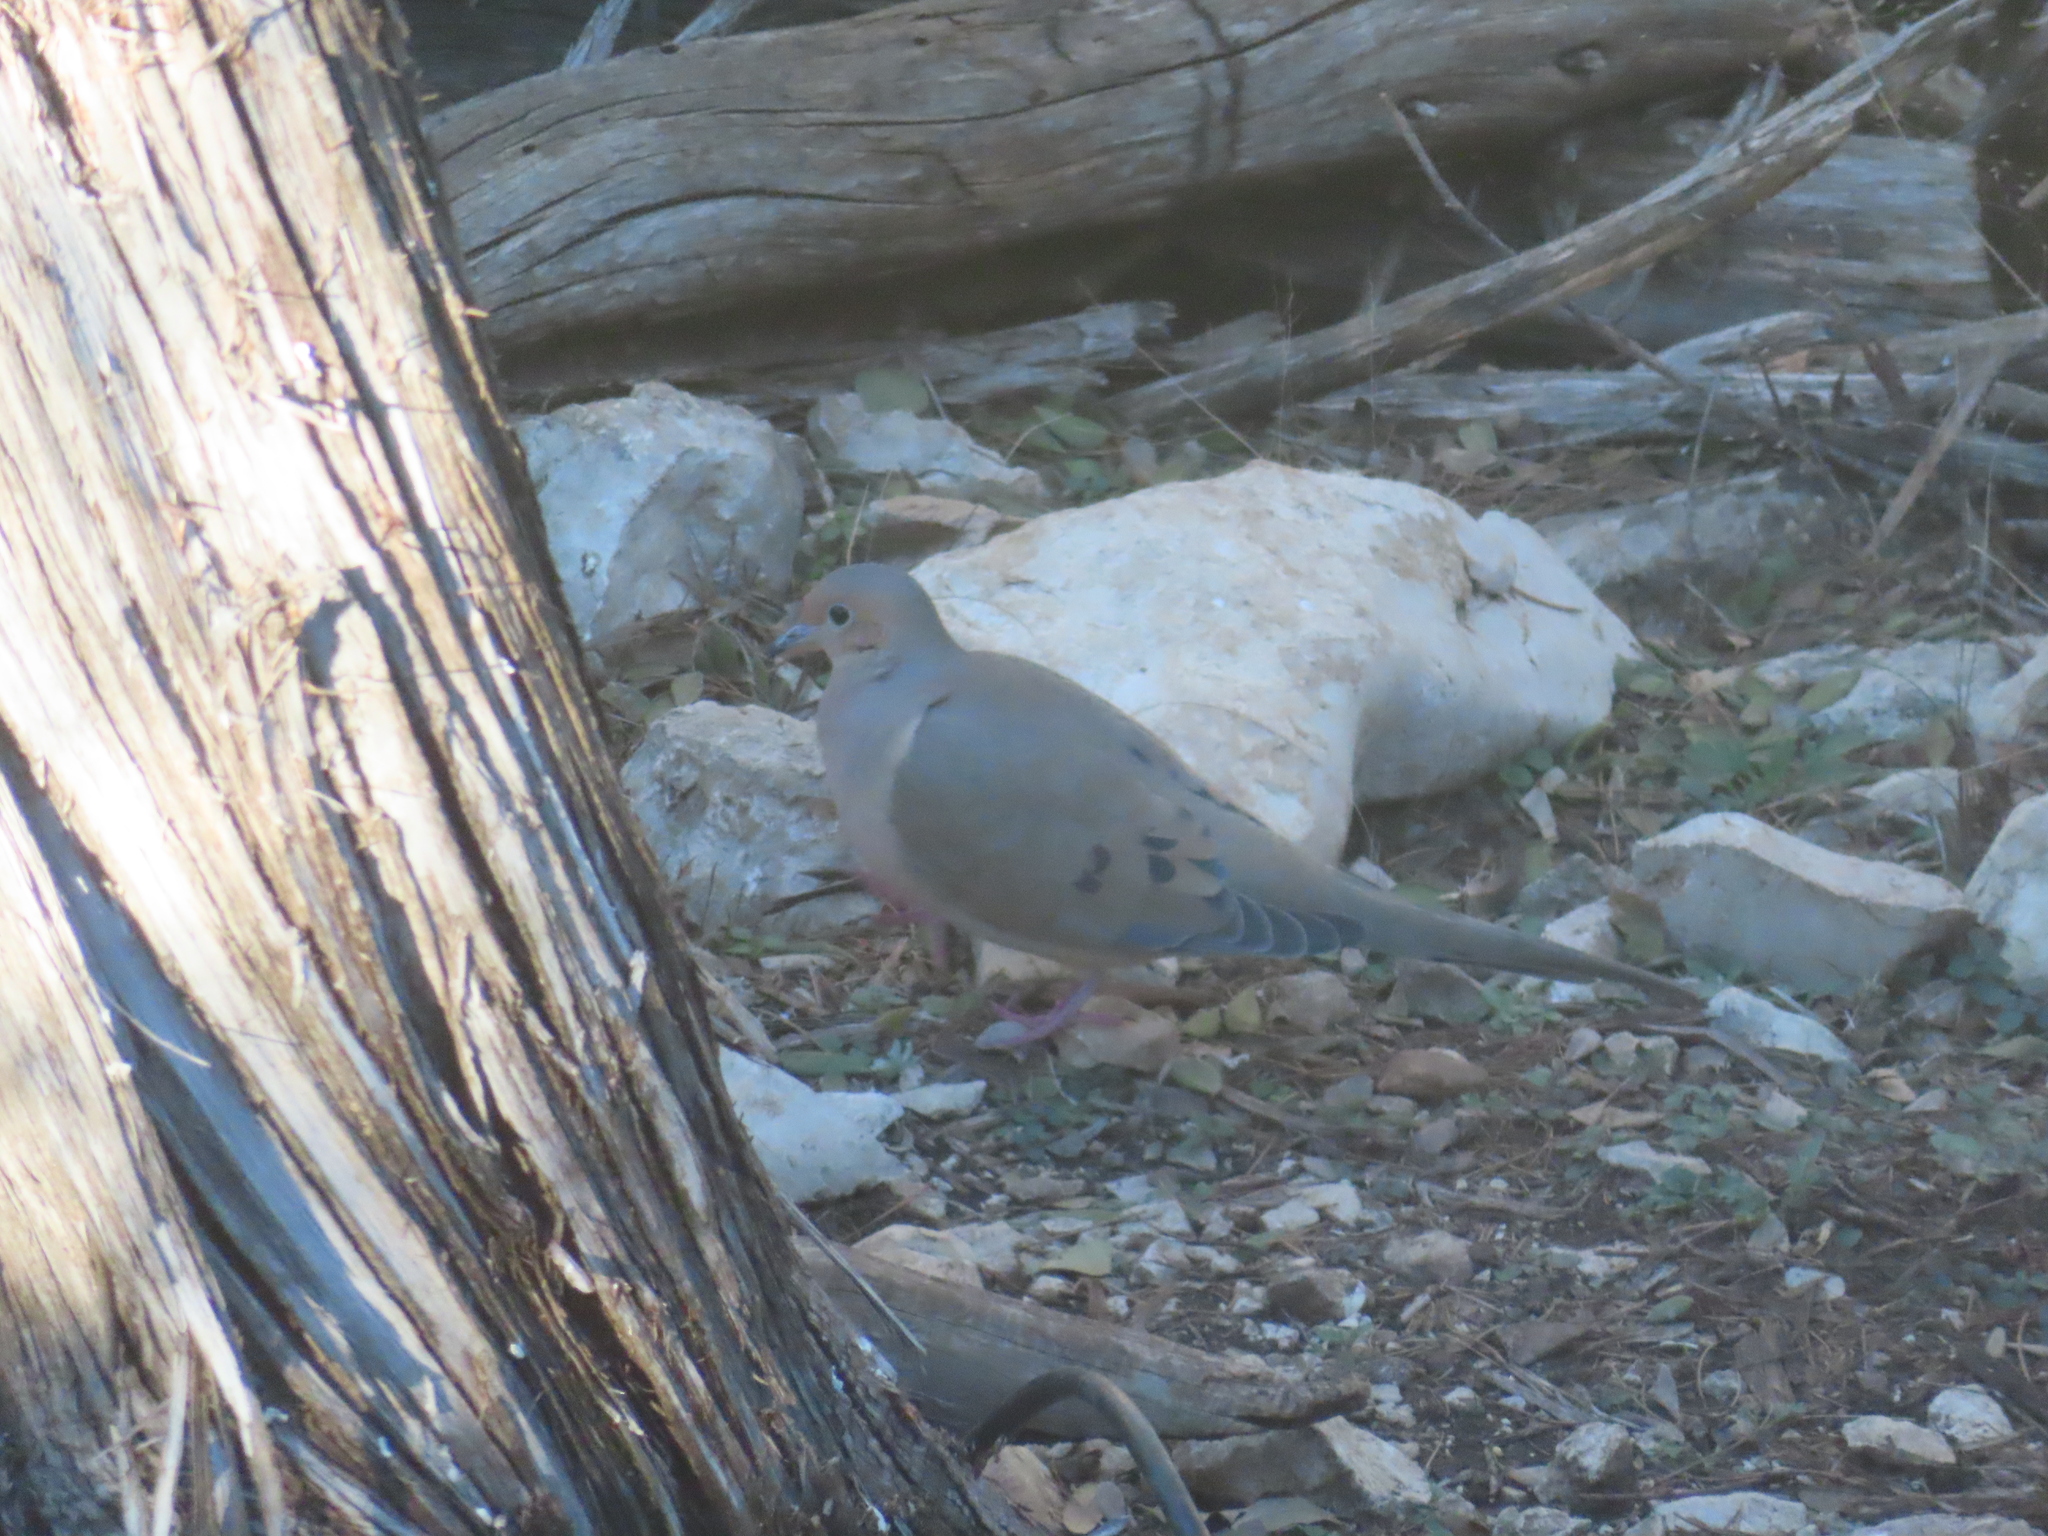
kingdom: Animalia
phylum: Chordata
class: Aves
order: Columbiformes
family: Columbidae
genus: Zenaida
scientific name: Zenaida macroura
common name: Mourning dove
